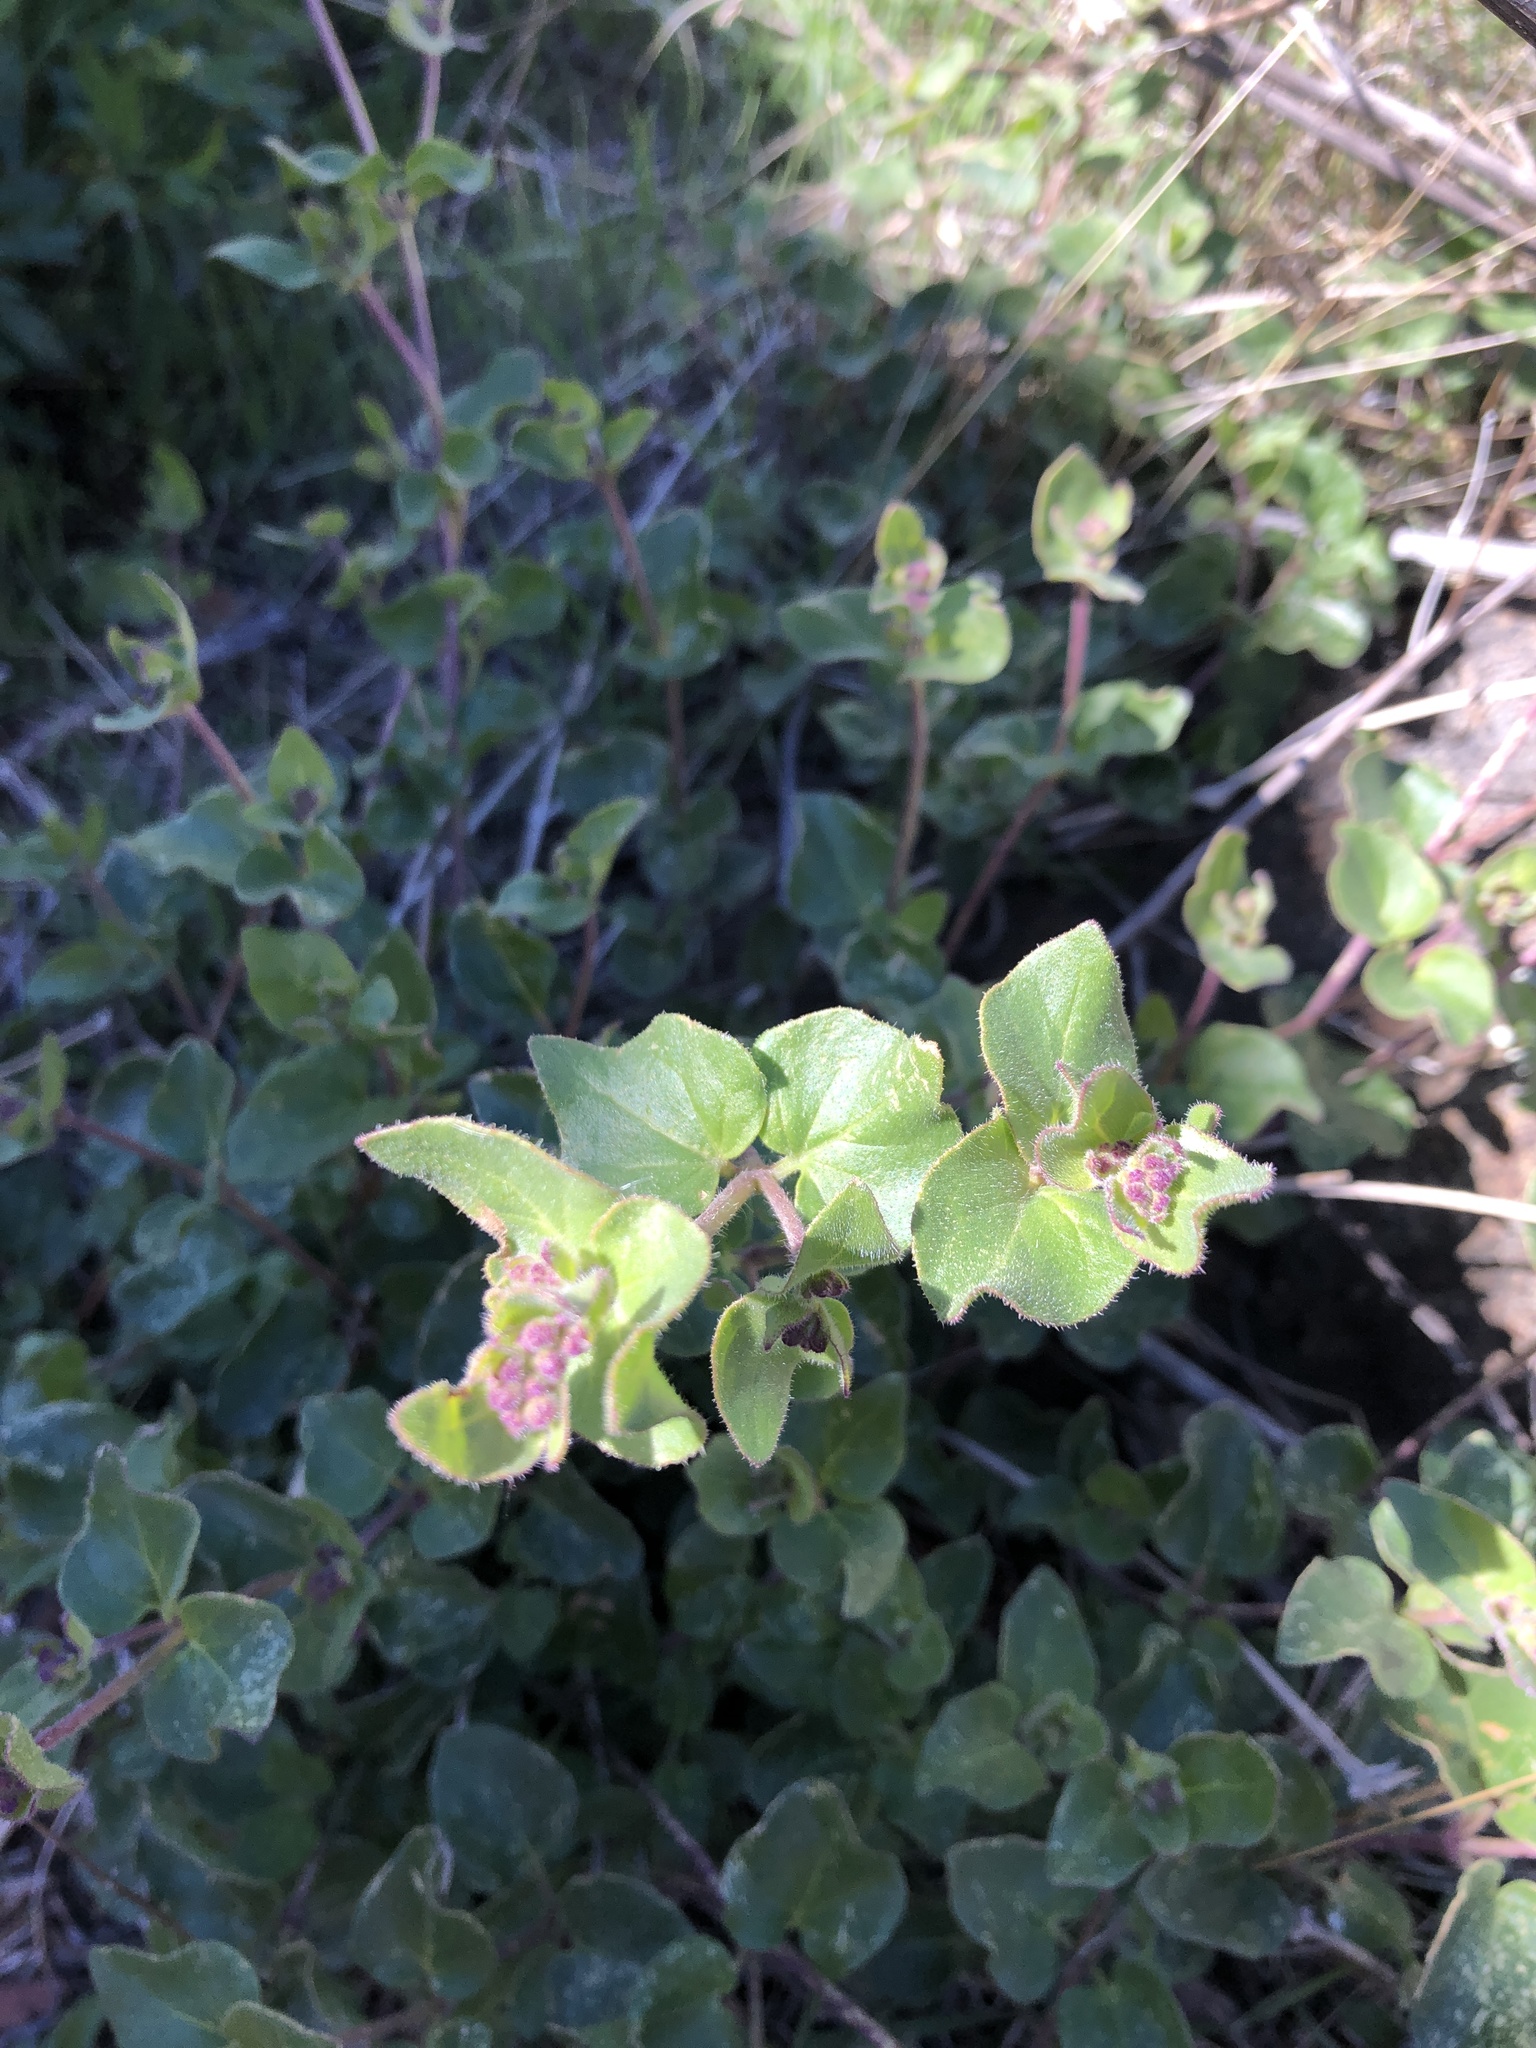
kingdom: Plantae
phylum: Tracheophyta
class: Magnoliopsida
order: Caryophyllales
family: Nyctaginaceae
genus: Mirabilis
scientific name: Mirabilis laevis
